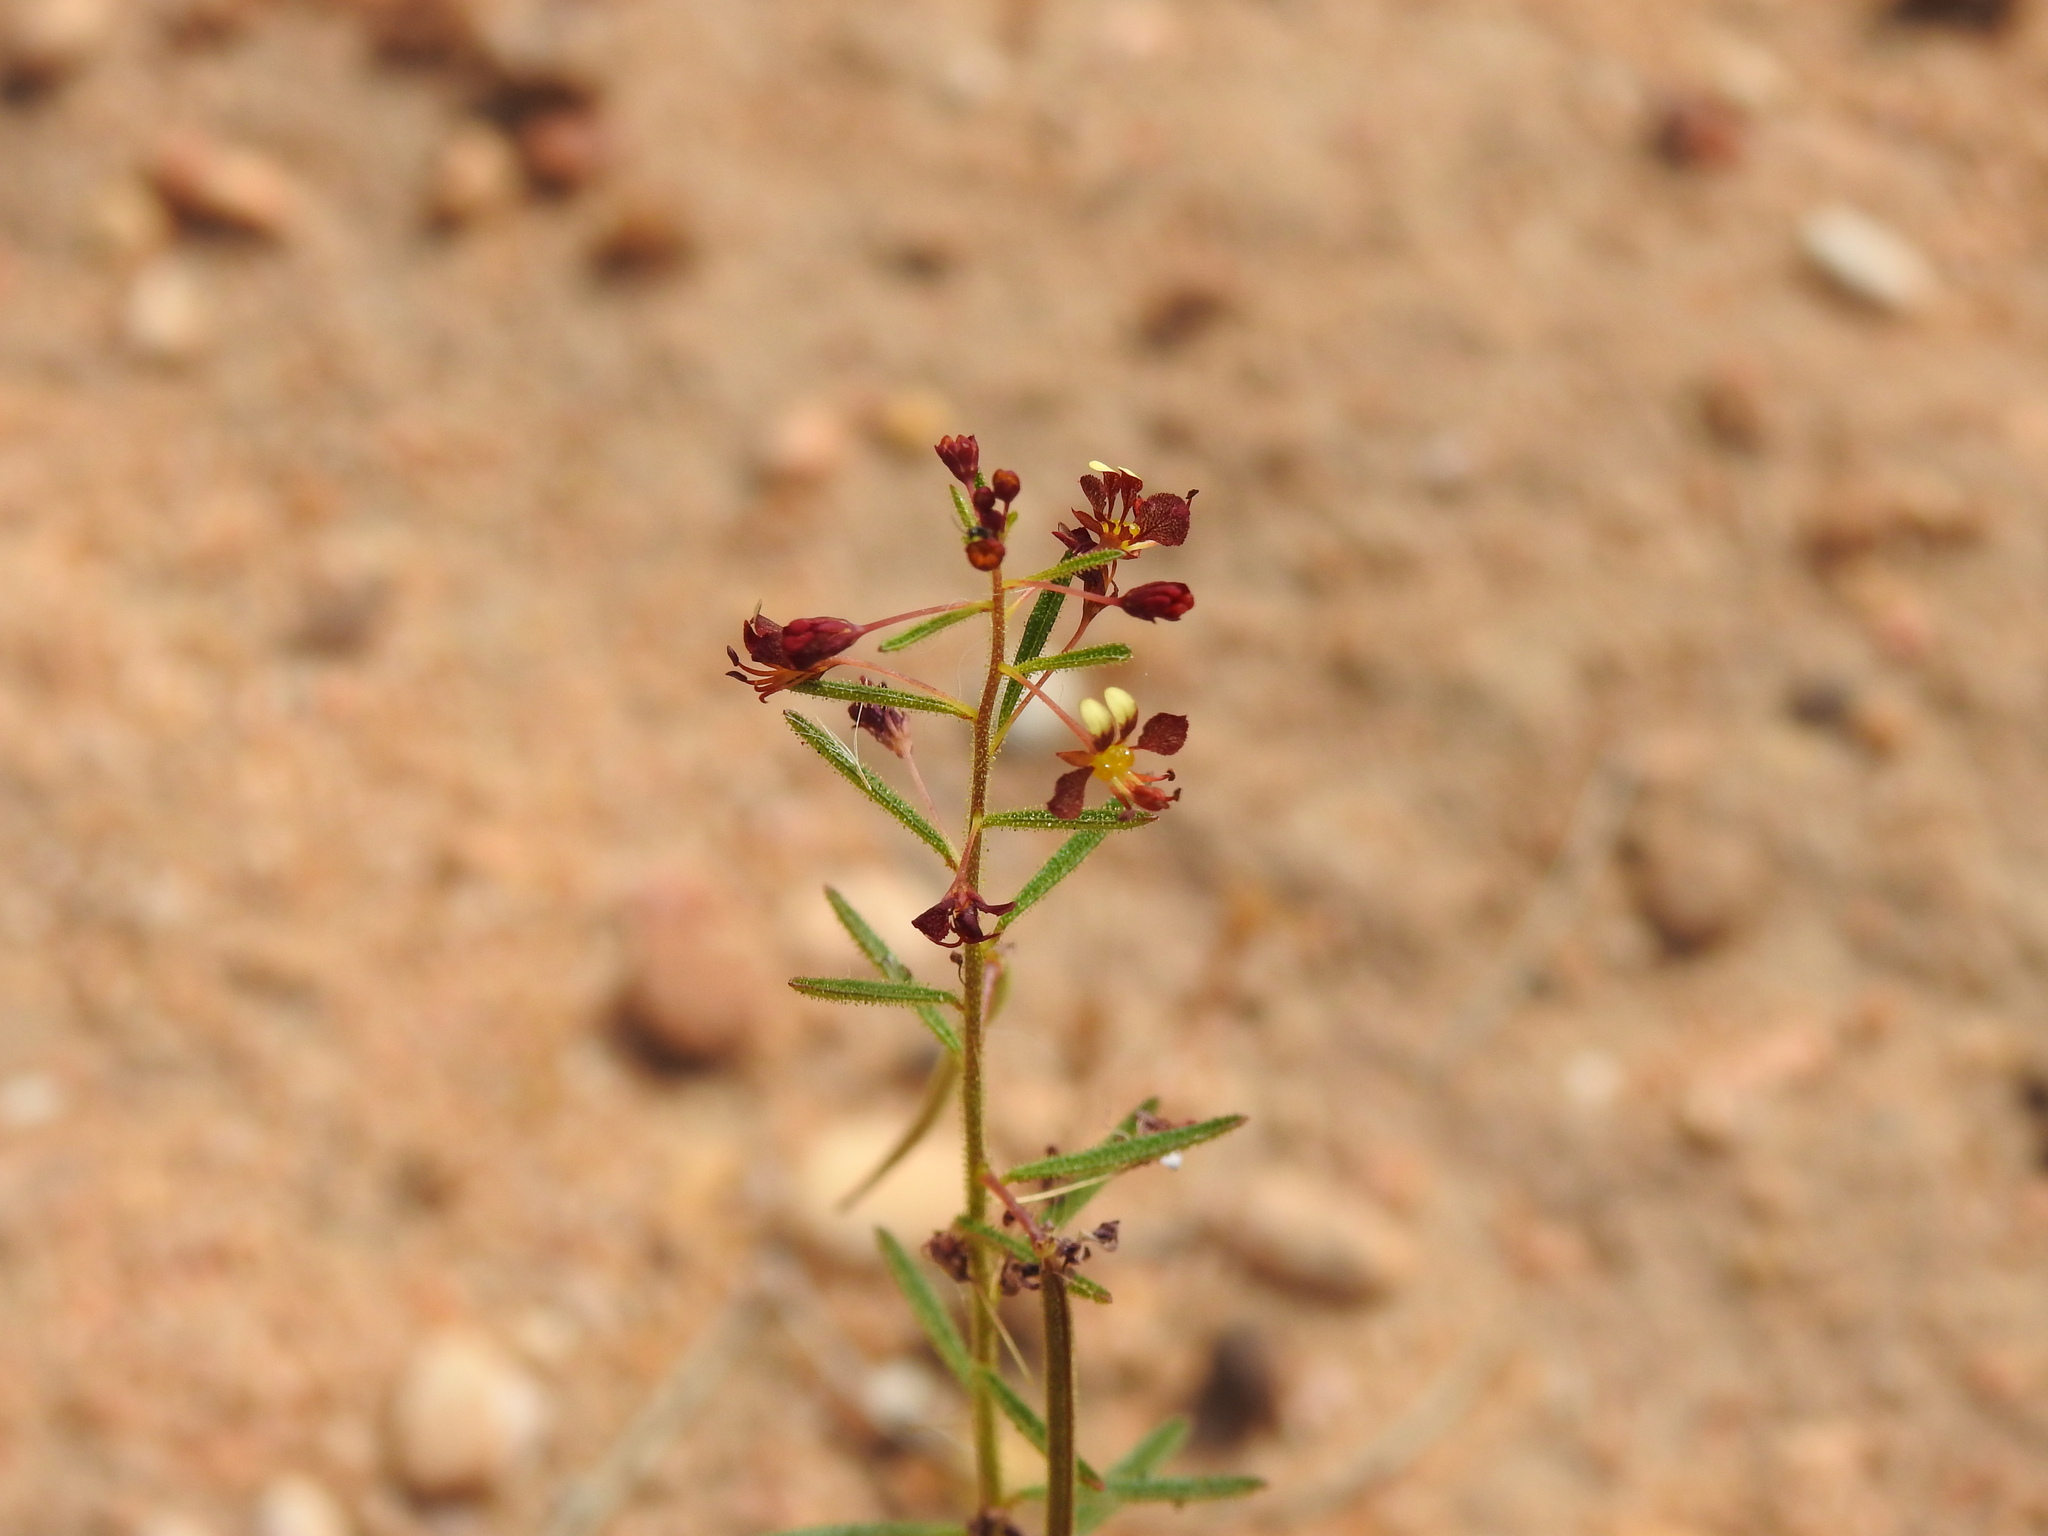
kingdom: Plantae
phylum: Tracheophyta
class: Magnoliopsida
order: Brassicales
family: Cleomaceae
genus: Cleome
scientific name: Cleome violacea
